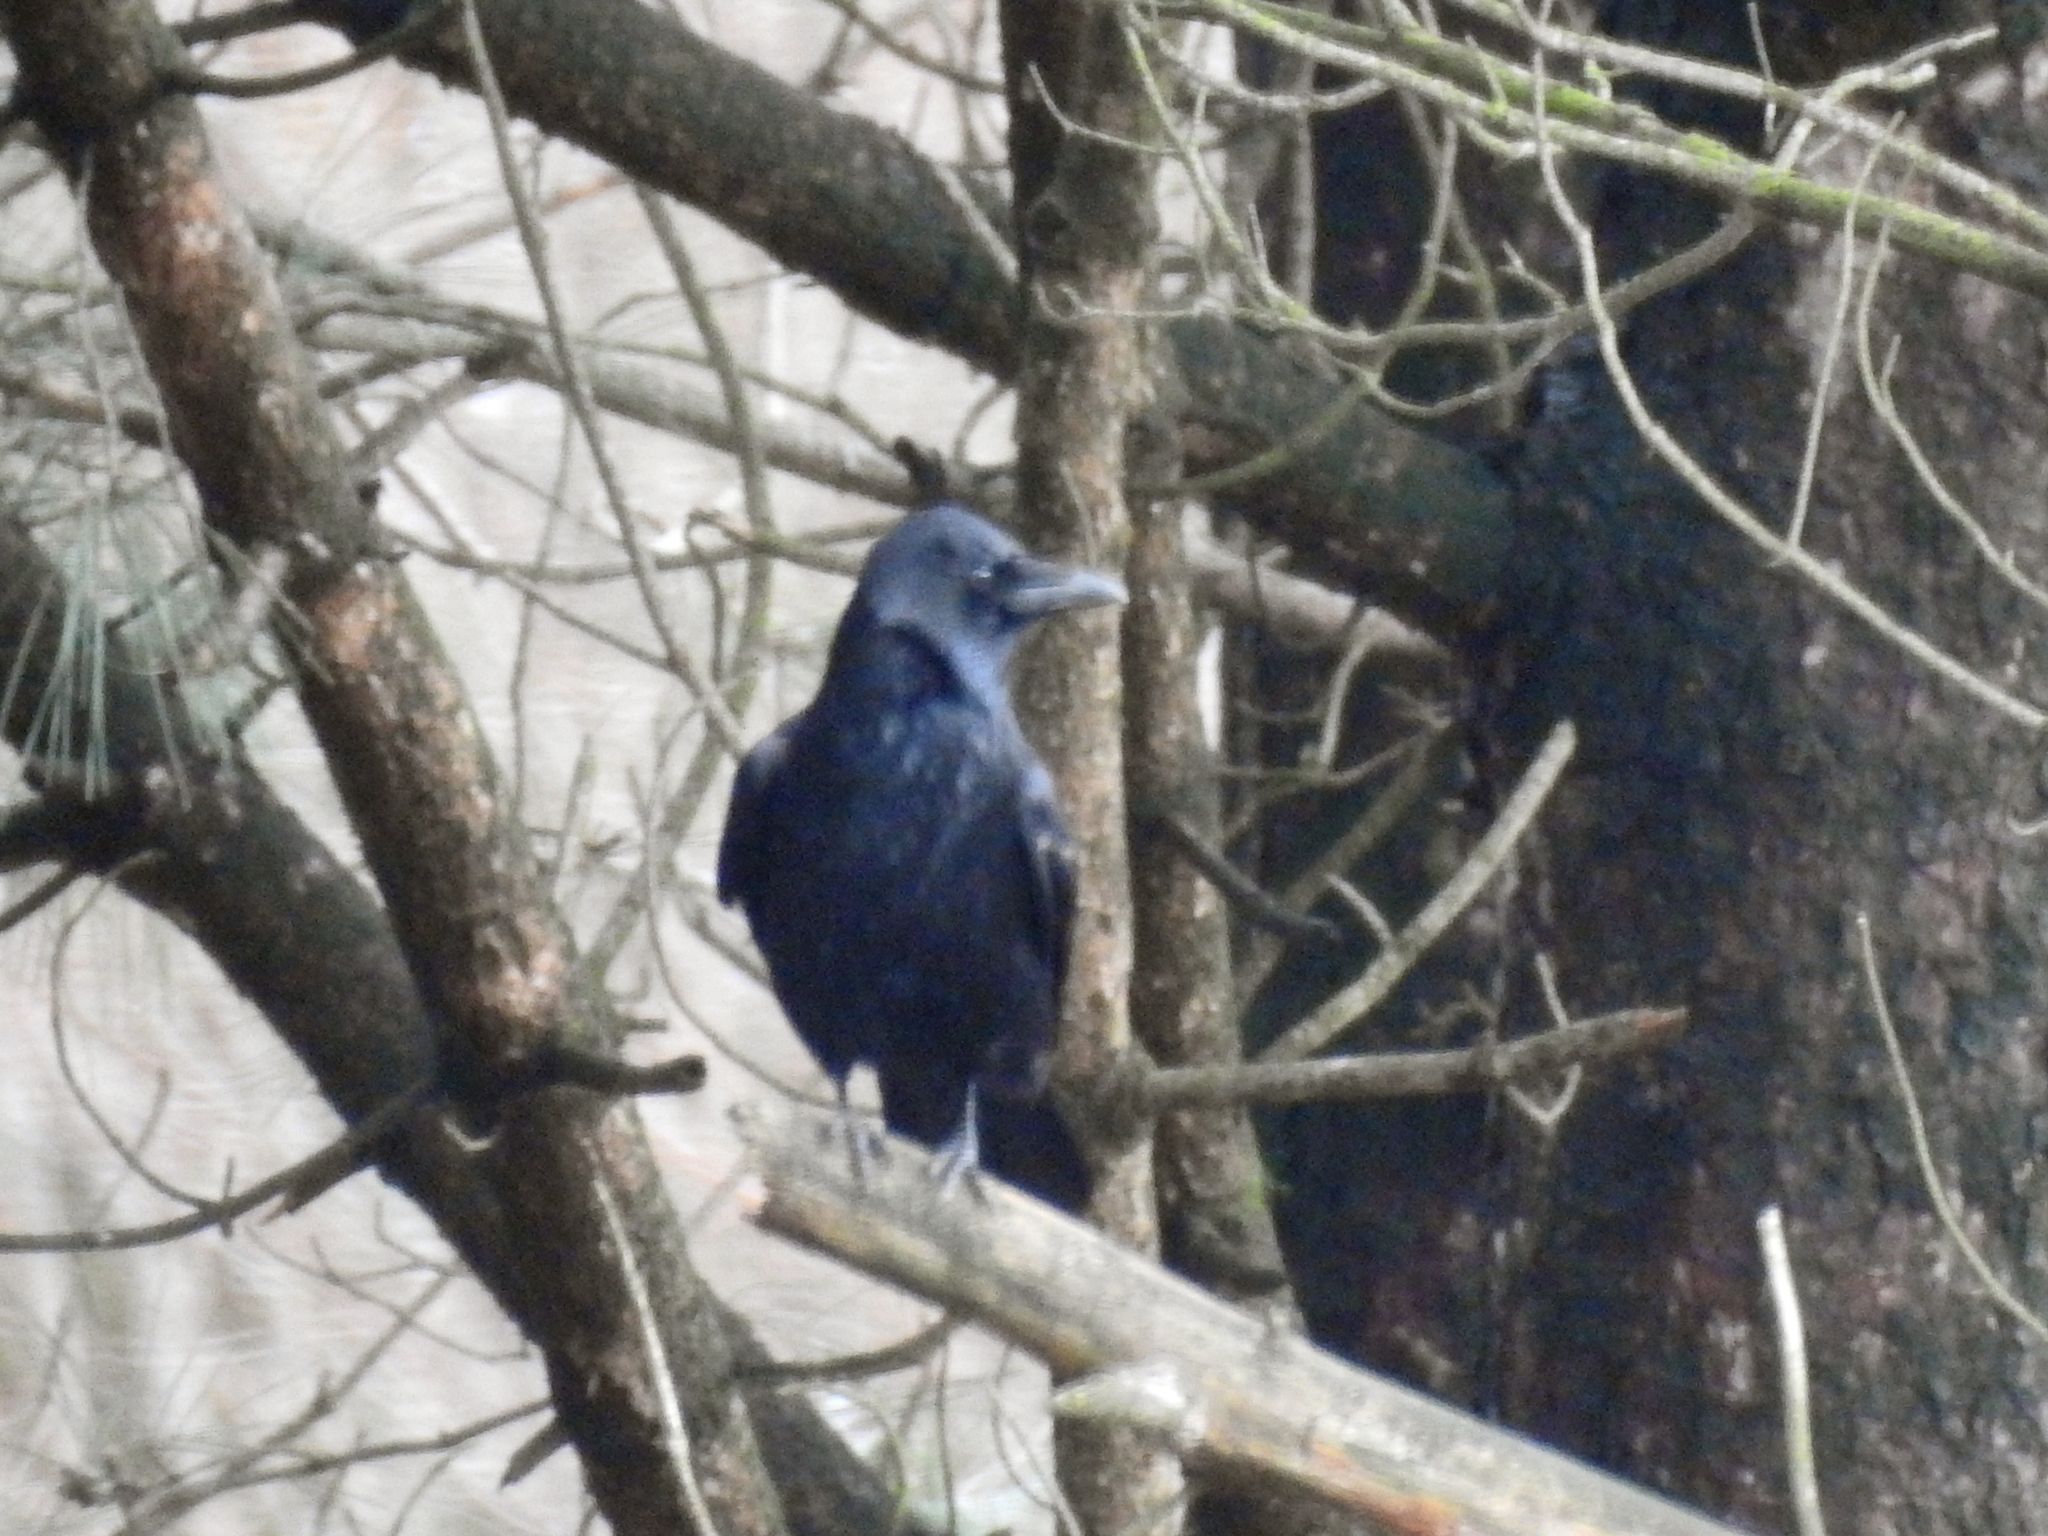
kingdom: Animalia
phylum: Chordata
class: Aves
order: Passeriformes
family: Corvidae
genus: Corvus
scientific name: Corvus corone
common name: Carrion crow
